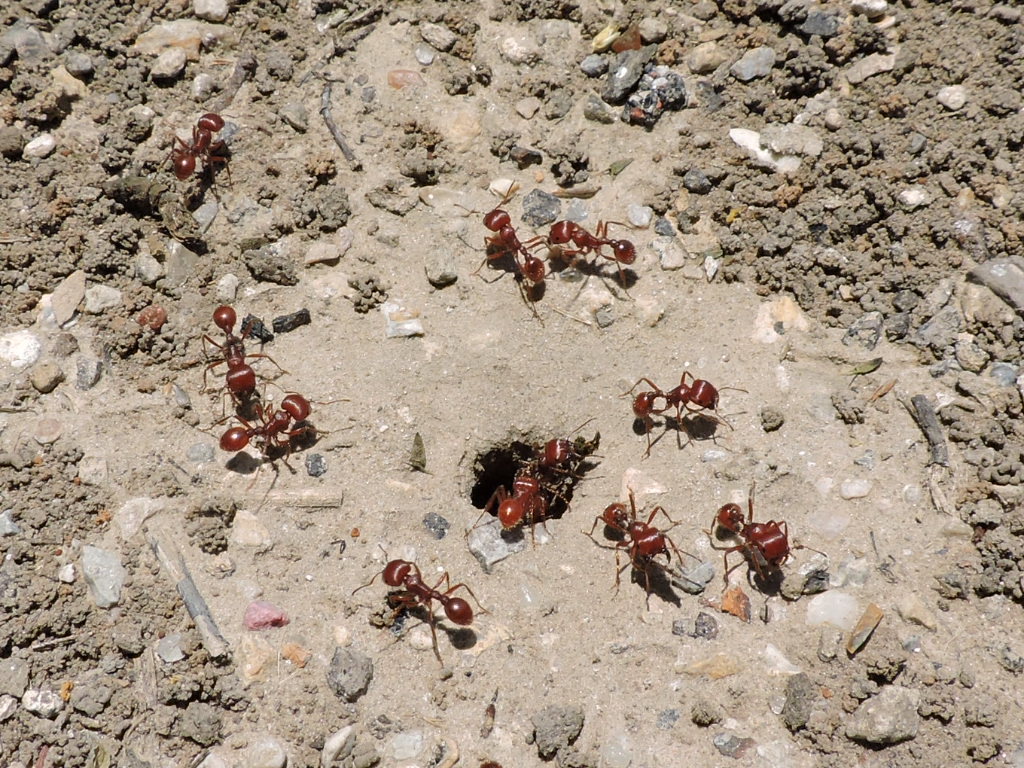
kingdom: Animalia
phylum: Arthropoda
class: Insecta
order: Hymenoptera
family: Formicidae
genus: Pogonomyrmex
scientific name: Pogonomyrmex barbatus
